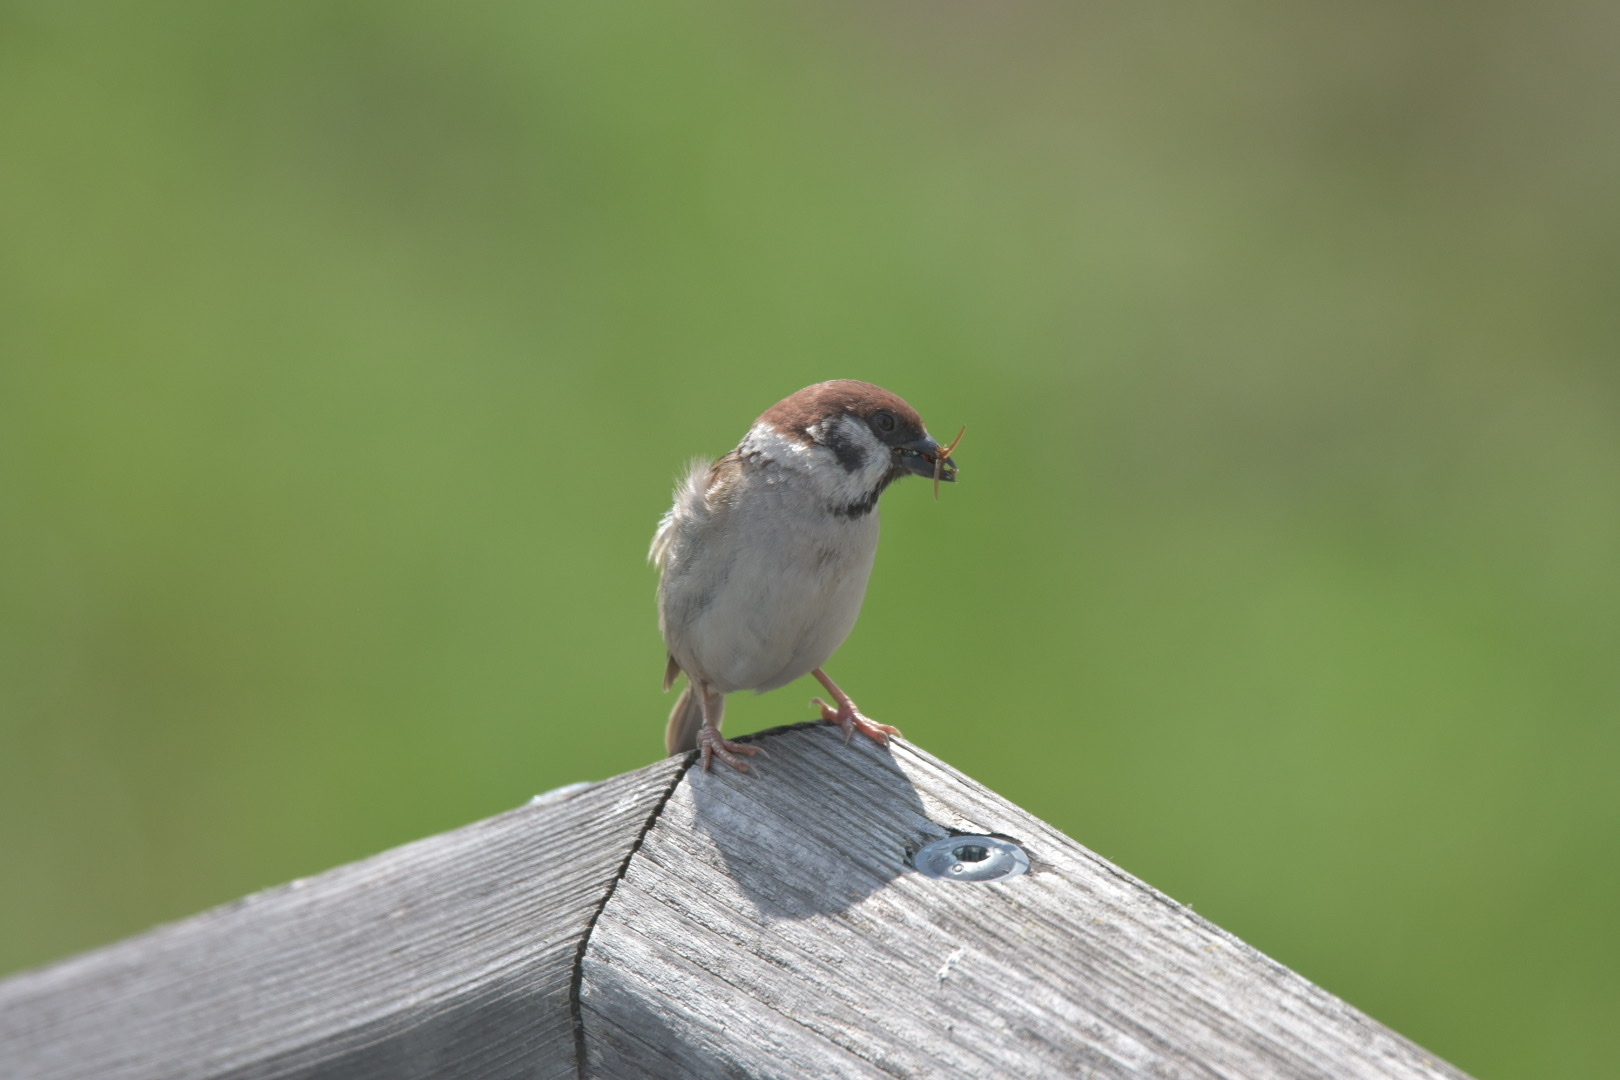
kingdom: Animalia
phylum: Chordata
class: Aves
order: Passeriformes
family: Passeridae
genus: Passer
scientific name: Passer montanus
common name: Eurasian tree sparrow
